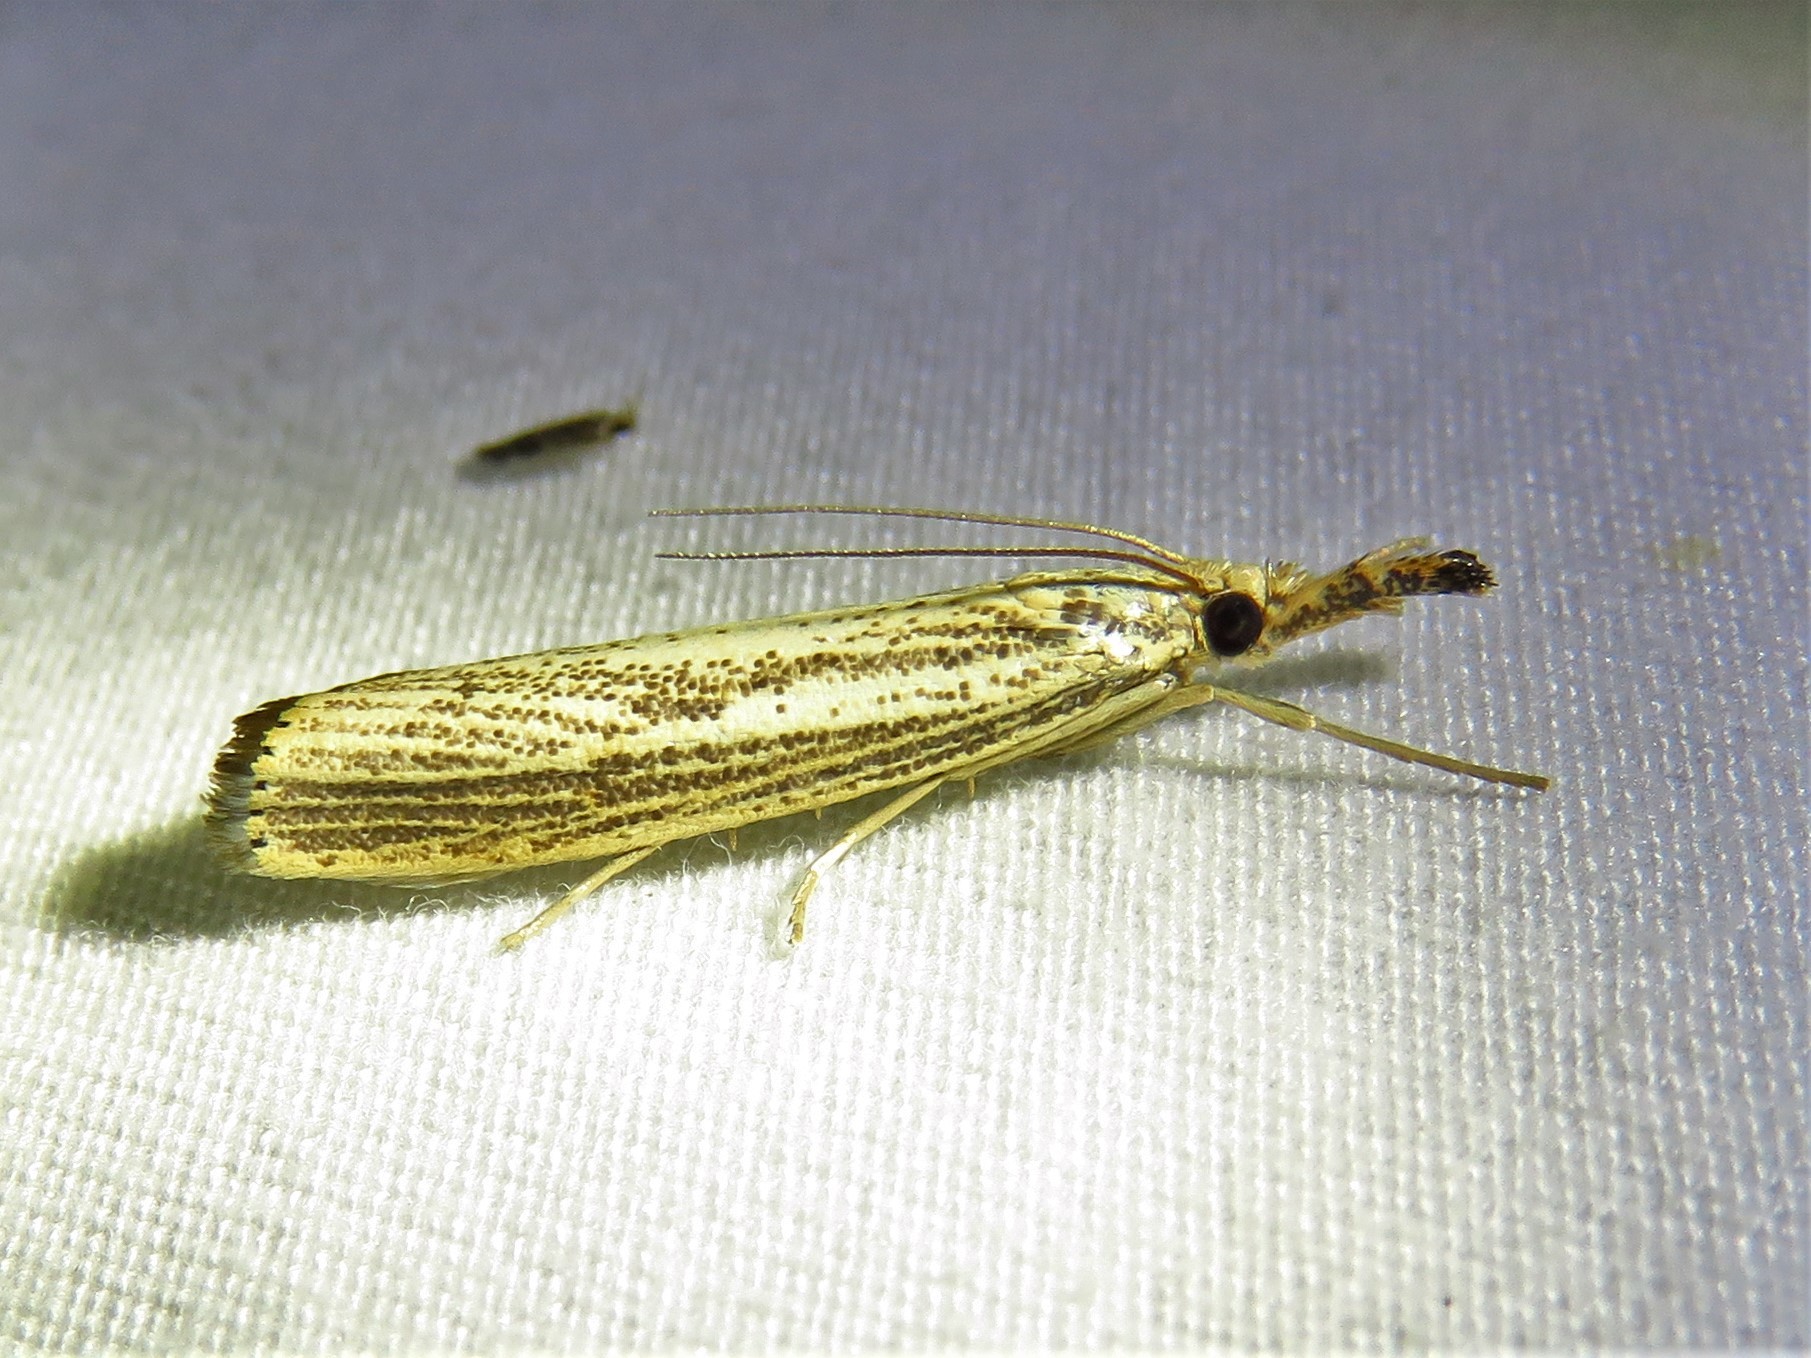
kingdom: Animalia
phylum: Arthropoda
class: Insecta
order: Lepidoptera
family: Crambidae
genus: Agriphila
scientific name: Agriphila vulgivagellus
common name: Vagabond crambus moth
